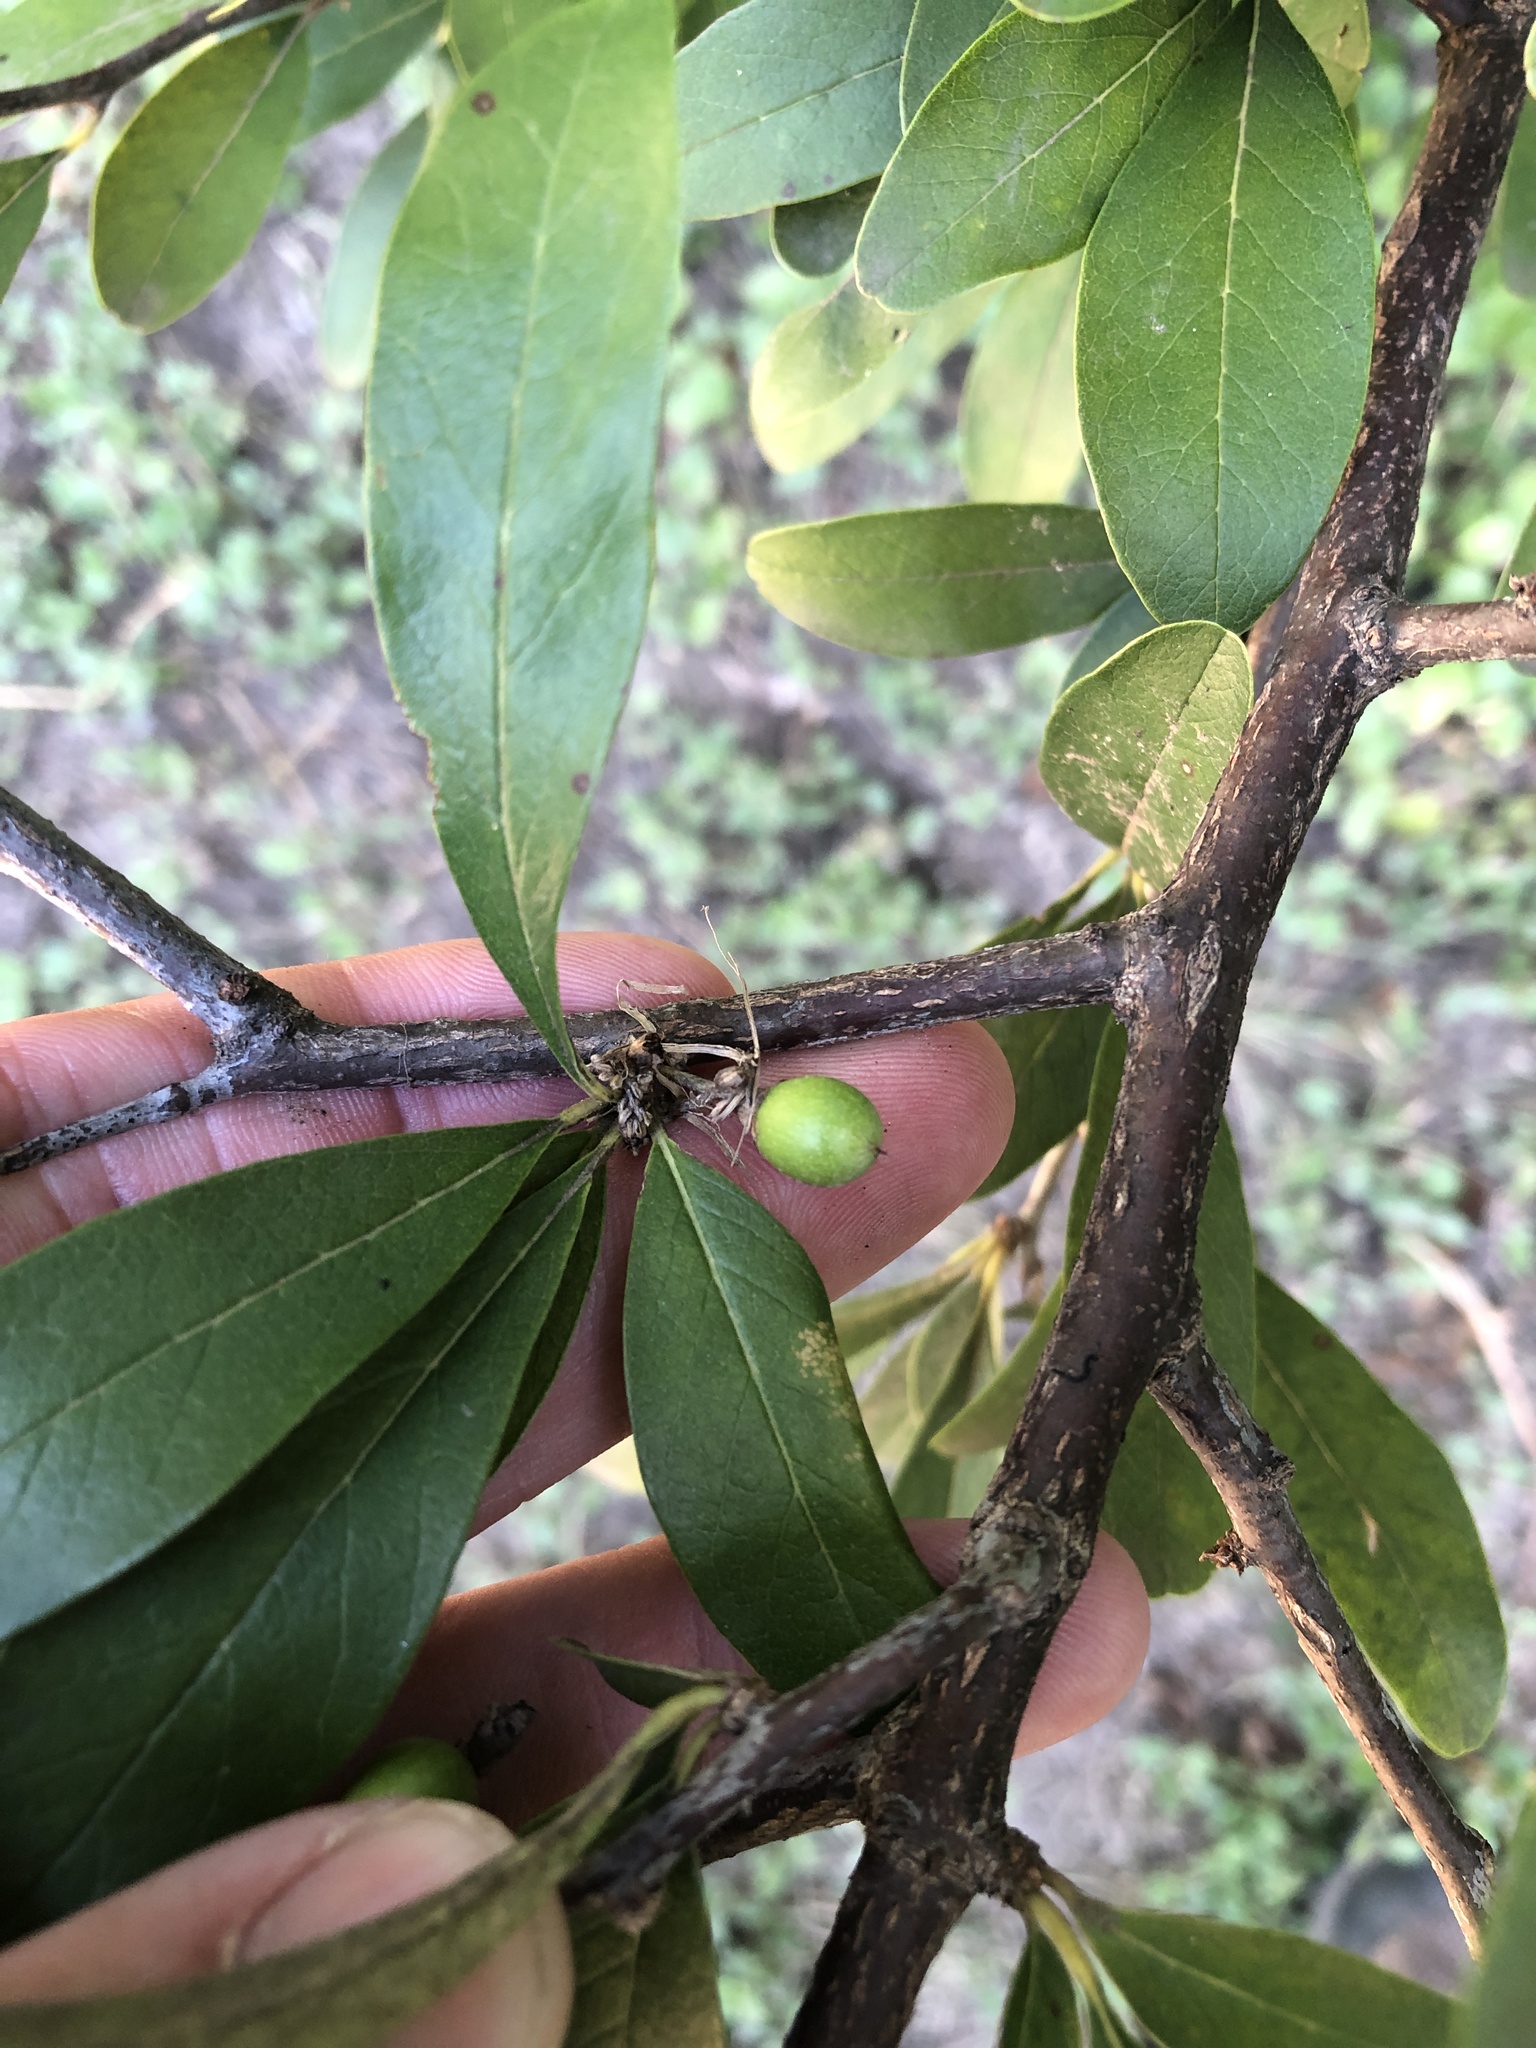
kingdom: Plantae
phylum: Tracheophyta
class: Magnoliopsida
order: Ericales
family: Sapotaceae
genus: Sideroxylon
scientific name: Sideroxylon lanuginosum
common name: Chittamwood
